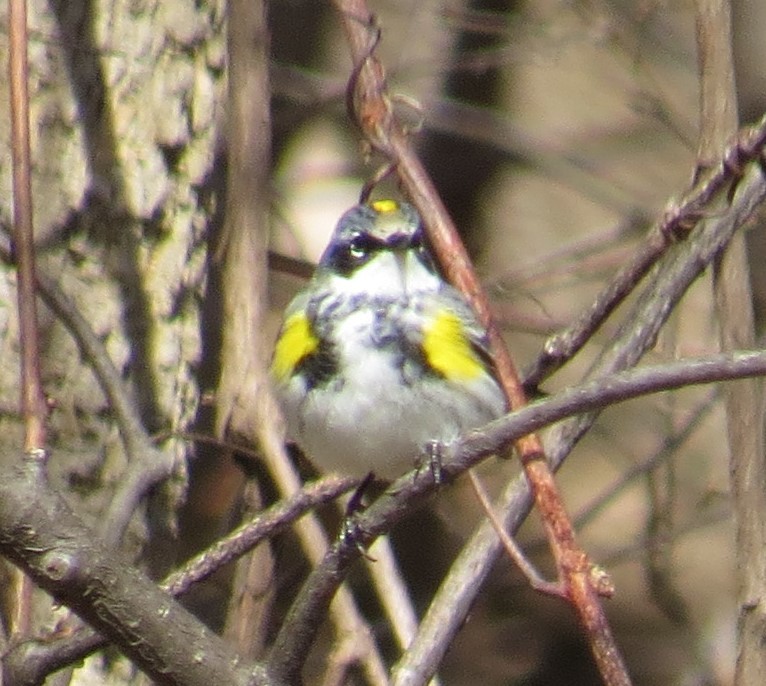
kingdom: Animalia
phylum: Chordata
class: Aves
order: Passeriformes
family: Parulidae
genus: Setophaga
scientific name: Setophaga coronata
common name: Myrtle warbler
